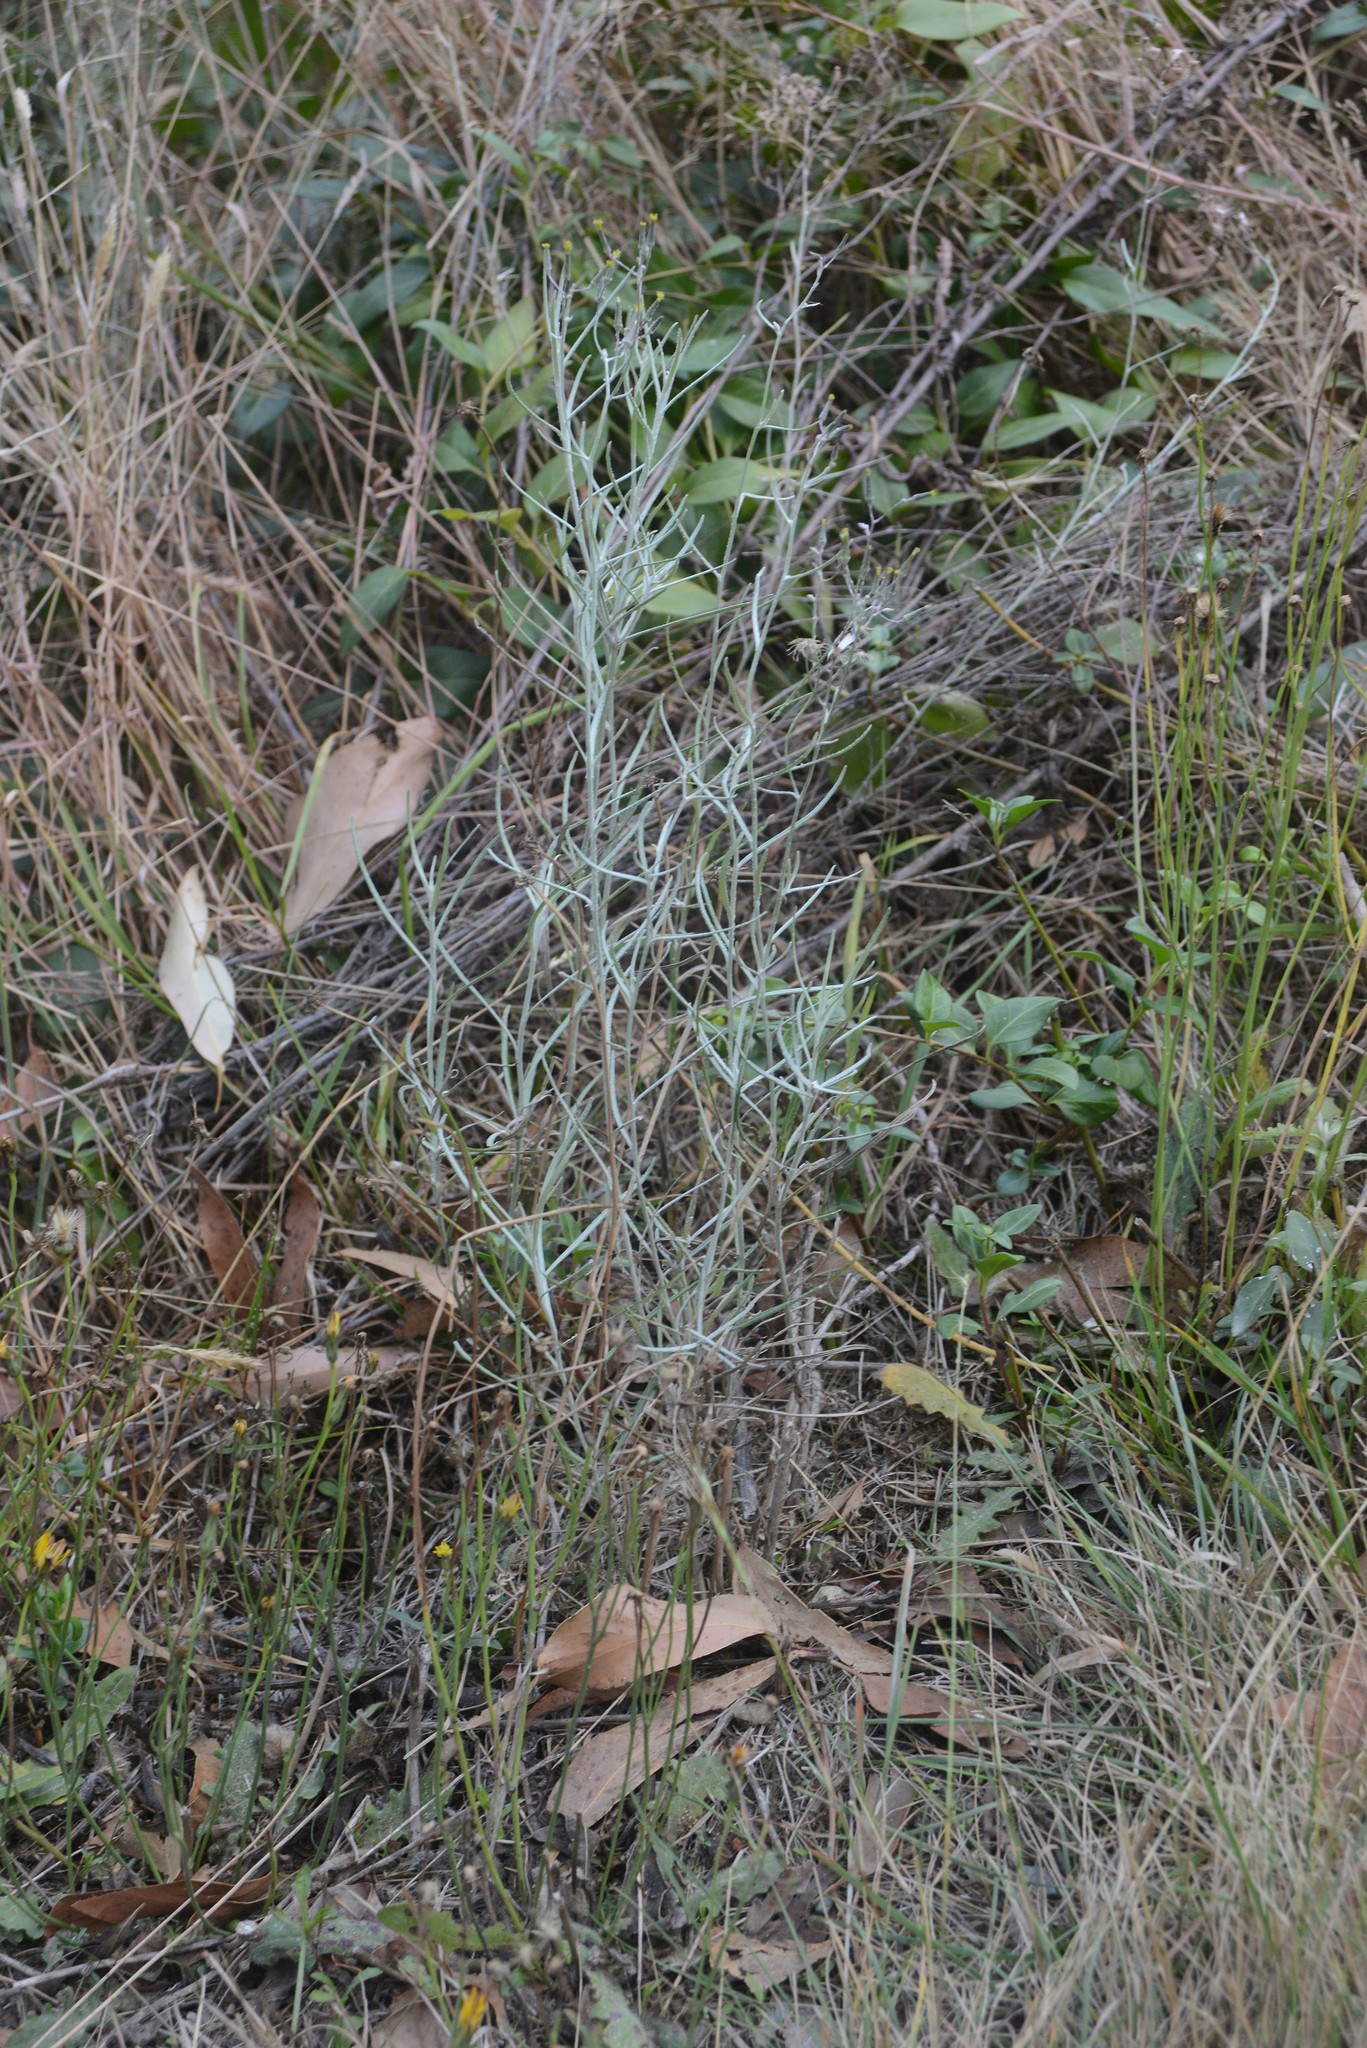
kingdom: Plantae
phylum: Tracheophyta
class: Magnoliopsida
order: Asterales
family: Asteraceae
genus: Senecio
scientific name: Senecio quadridentatus
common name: Cotton fireweed
